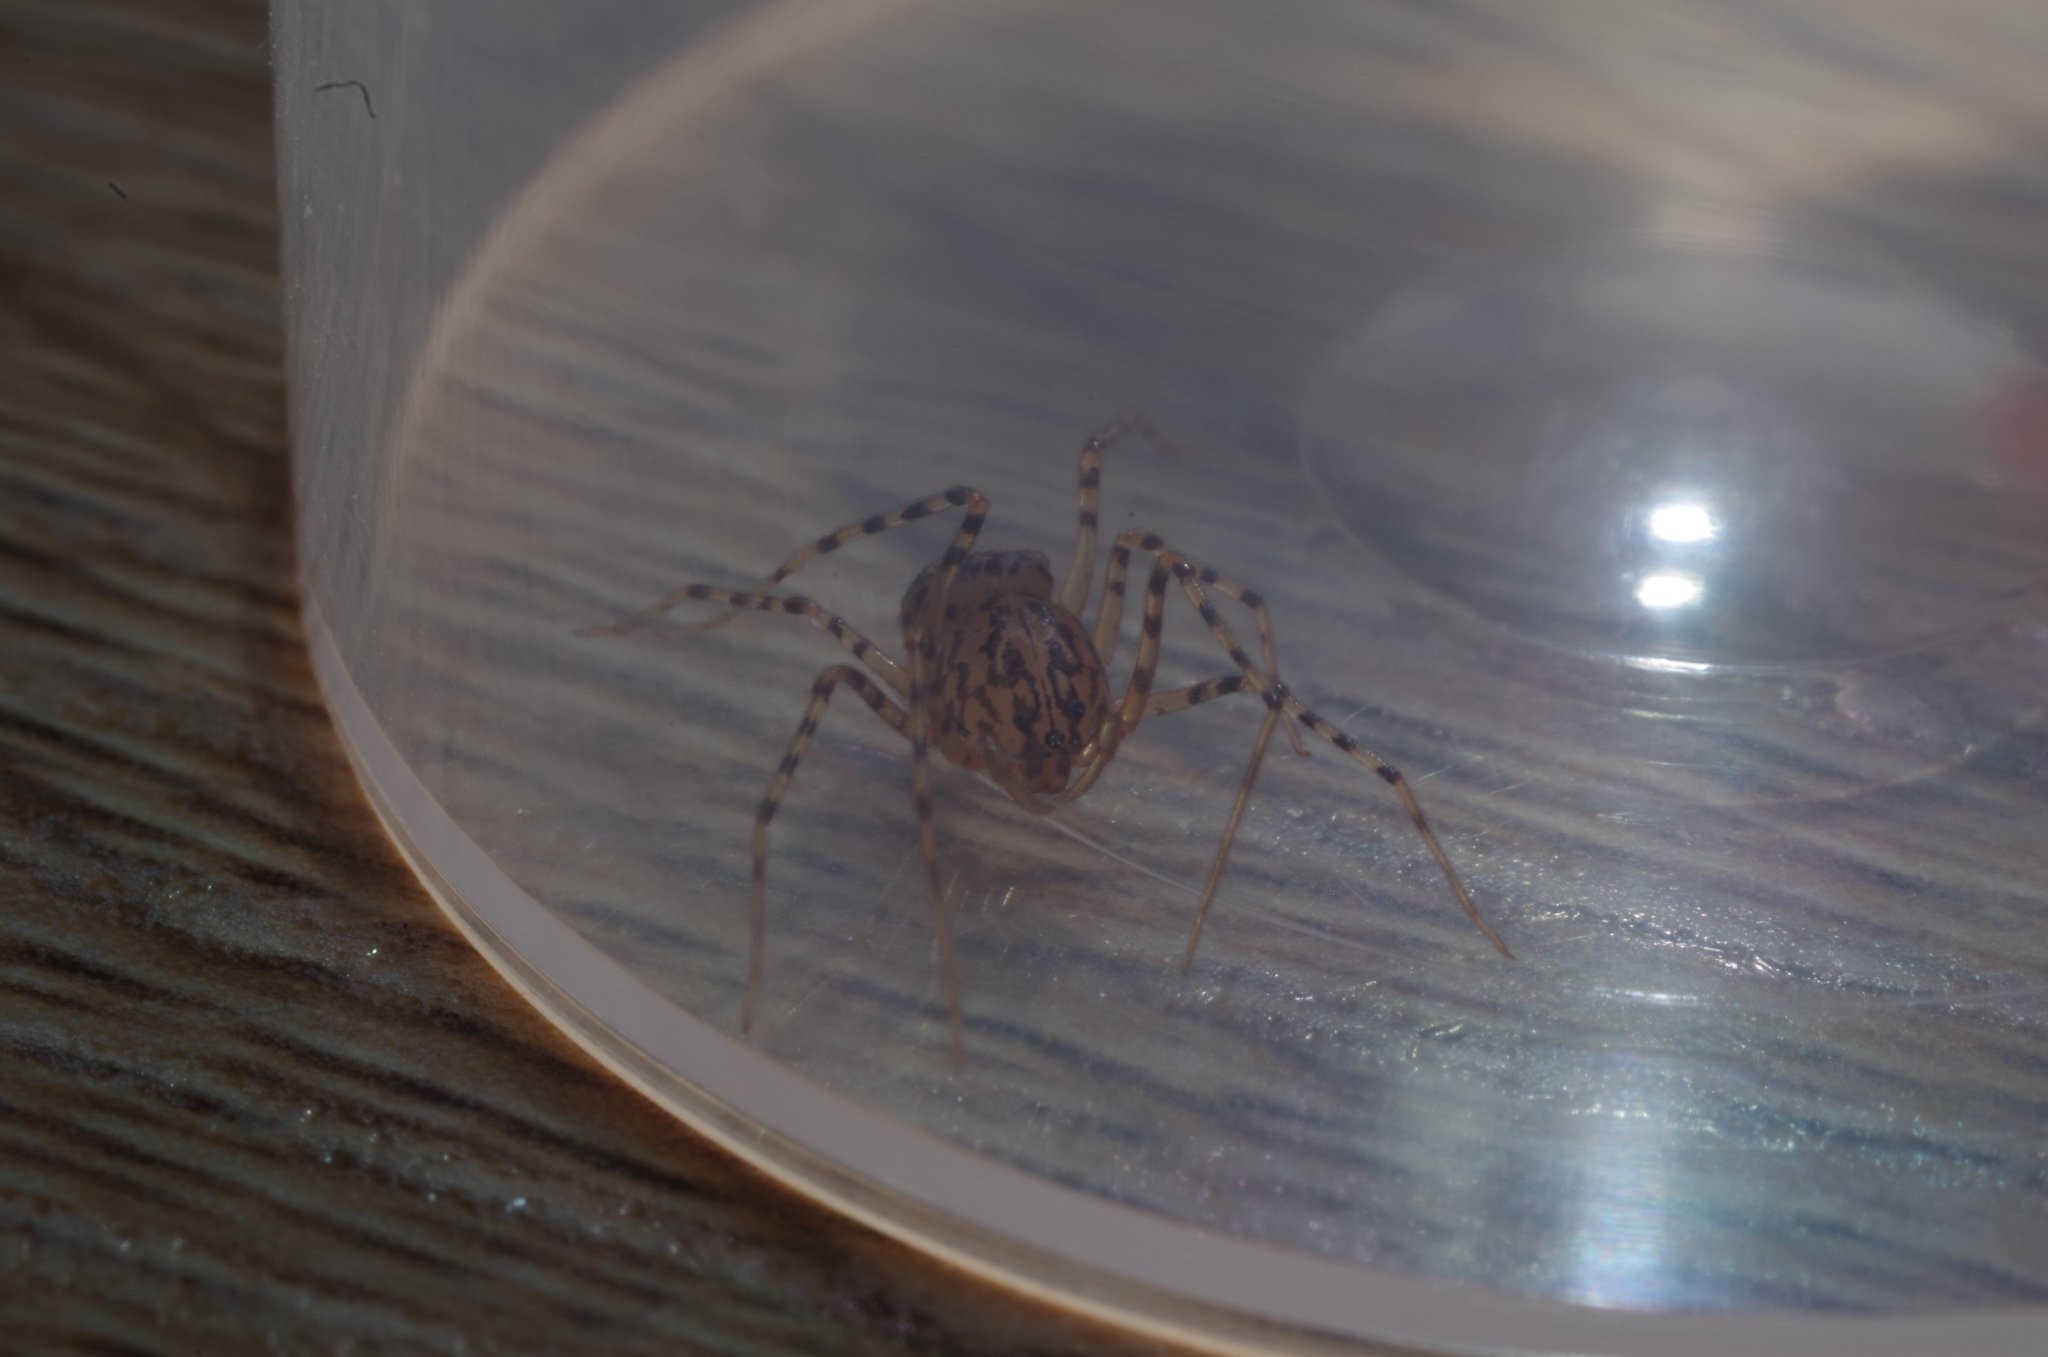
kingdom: Animalia
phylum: Arthropoda
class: Arachnida
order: Araneae
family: Scytodidae
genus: Scytodes
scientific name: Scytodes thoracica
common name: Spitting spider
